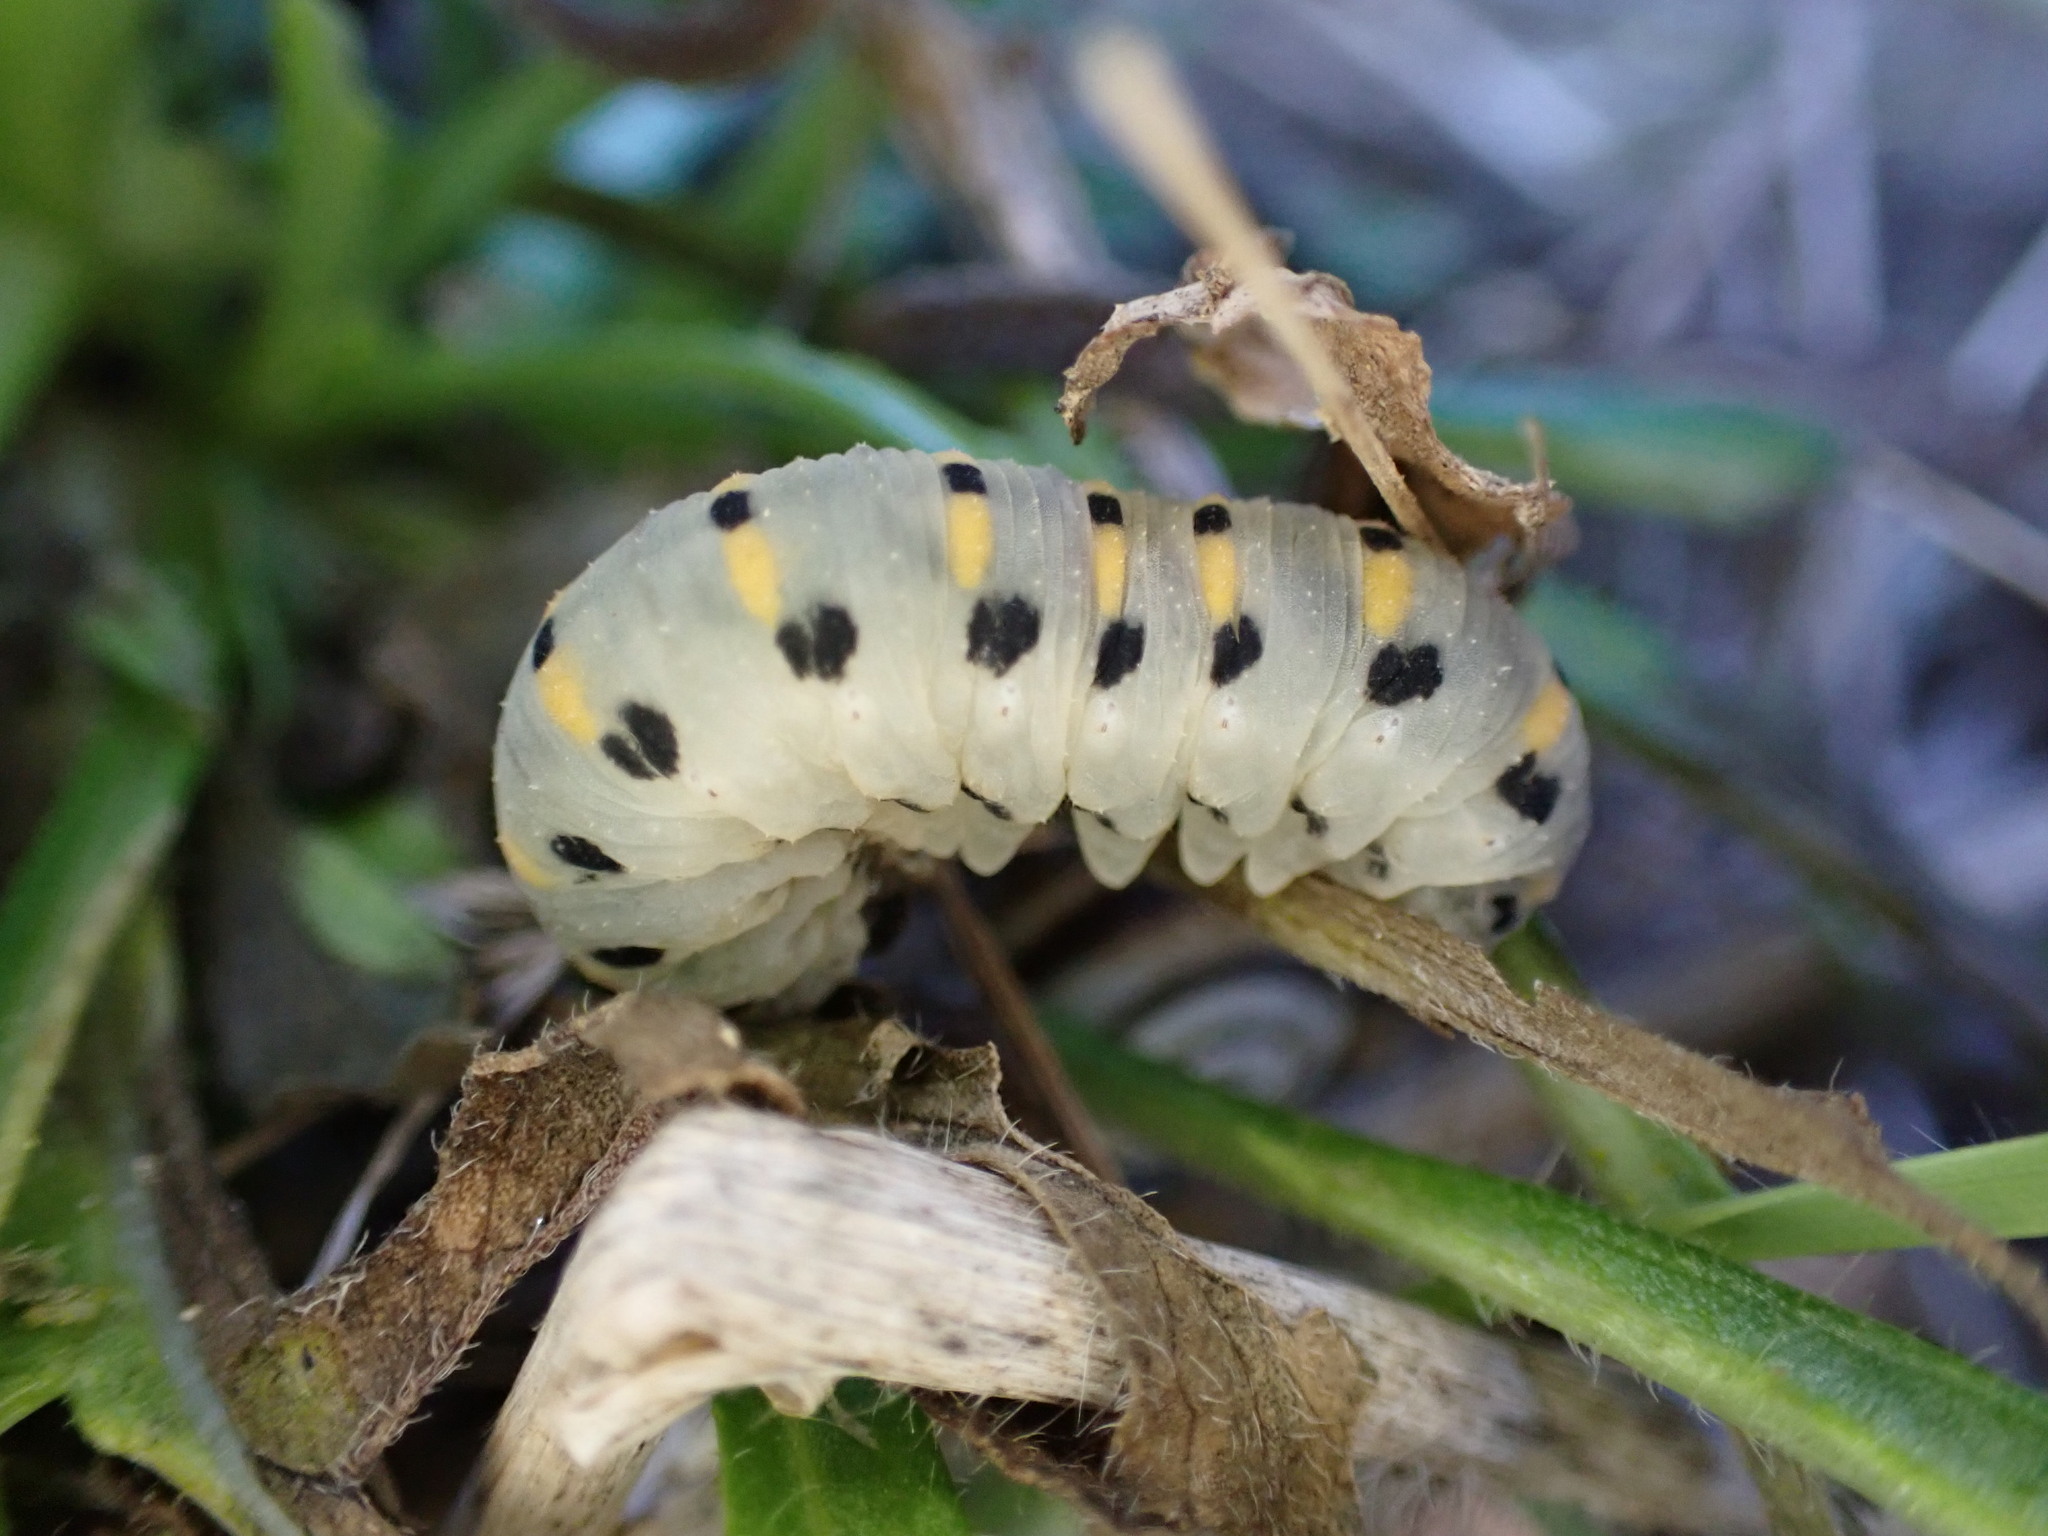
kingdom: Animalia
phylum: Arthropoda
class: Insecta
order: Hymenoptera
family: Cimbicidae
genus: Abia
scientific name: Abia nitens
